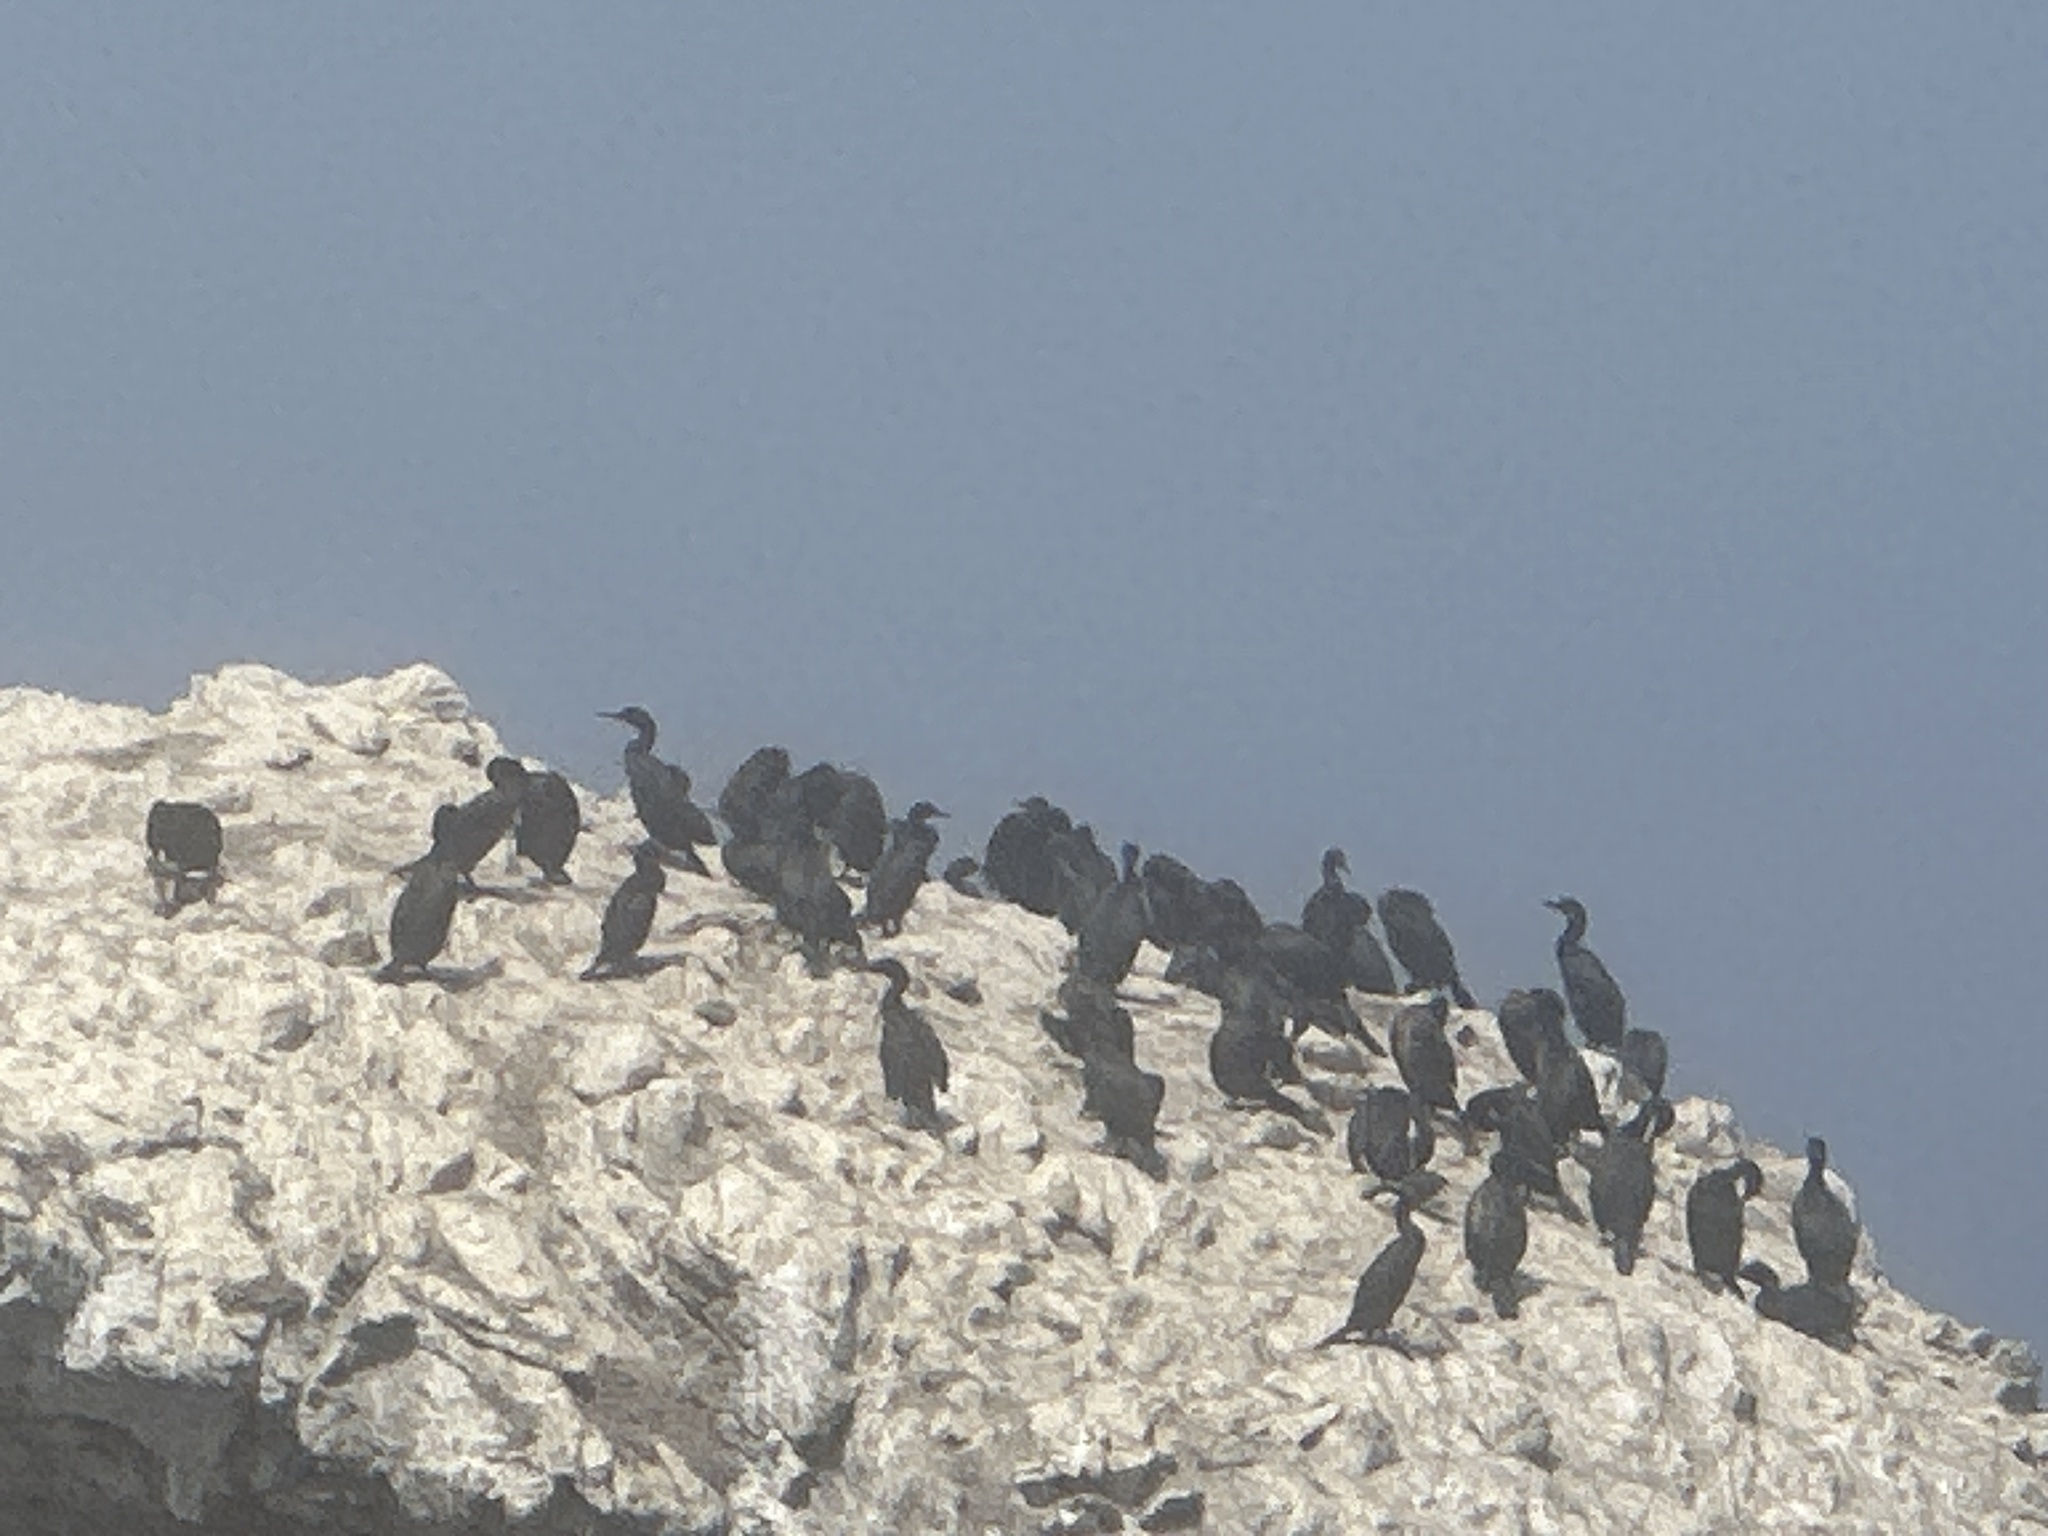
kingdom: Animalia
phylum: Chordata
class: Aves
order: Suliformes
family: Phalacrocoracidae
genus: Urile
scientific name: Urile penicillatus
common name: Brandt's cormorant
